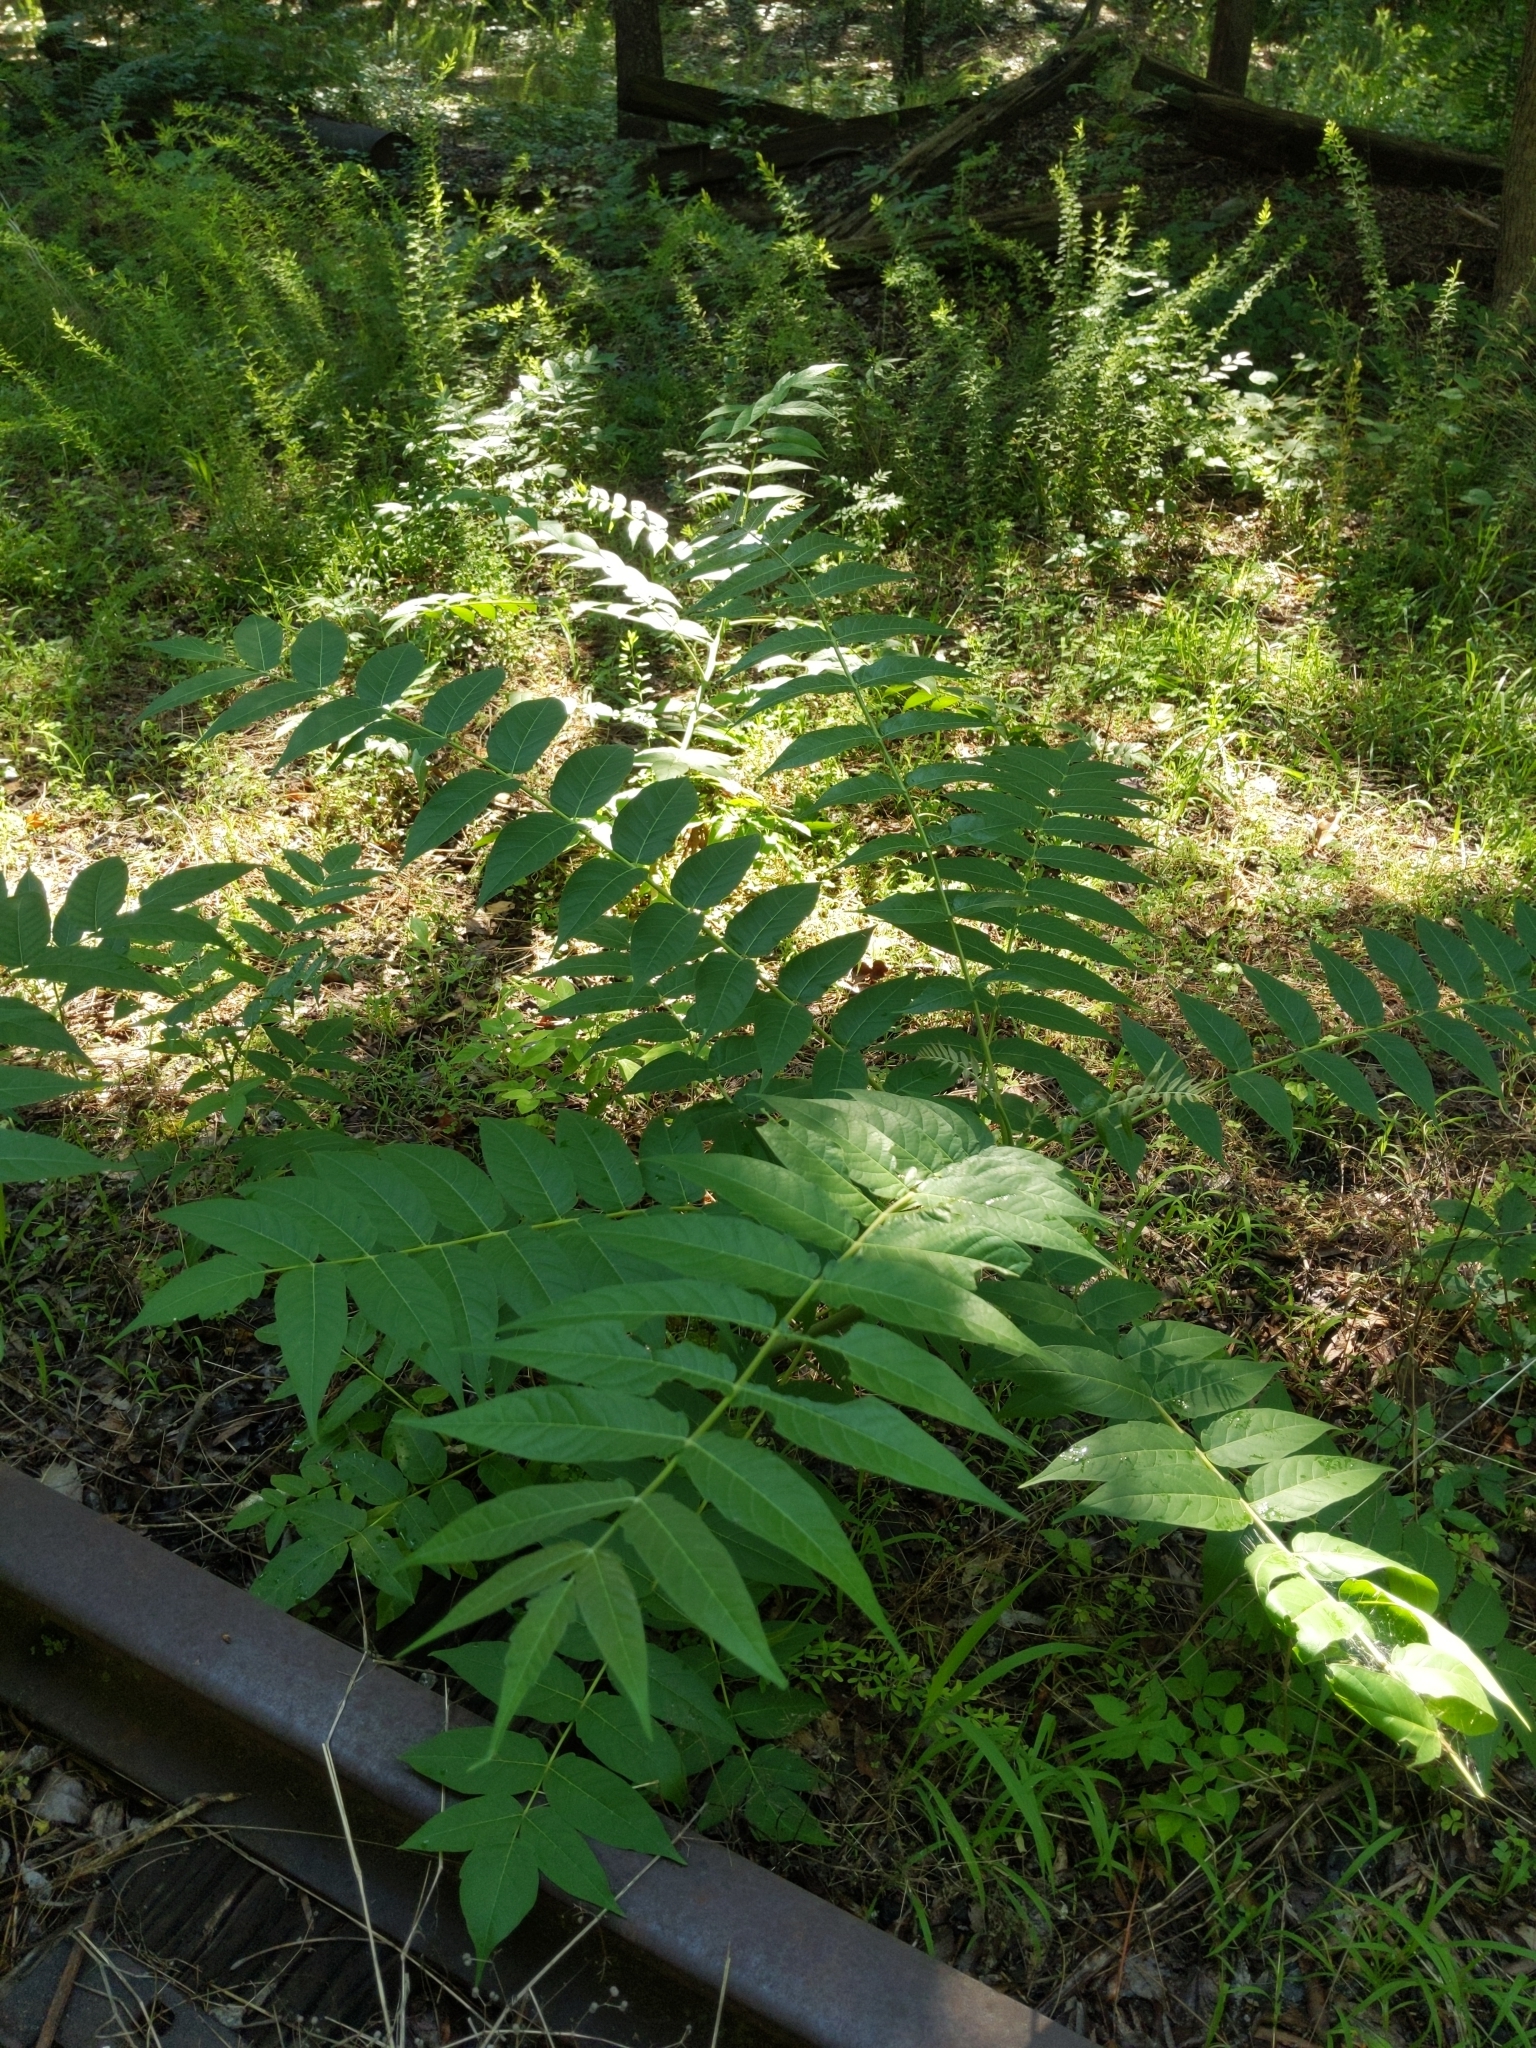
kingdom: Plantae
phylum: Tracheophyta
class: Magnoliopsida
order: Sapindales
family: Simaroubaceae
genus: Ailanthus
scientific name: Ailanthus altissima
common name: Tree-of-heaven
